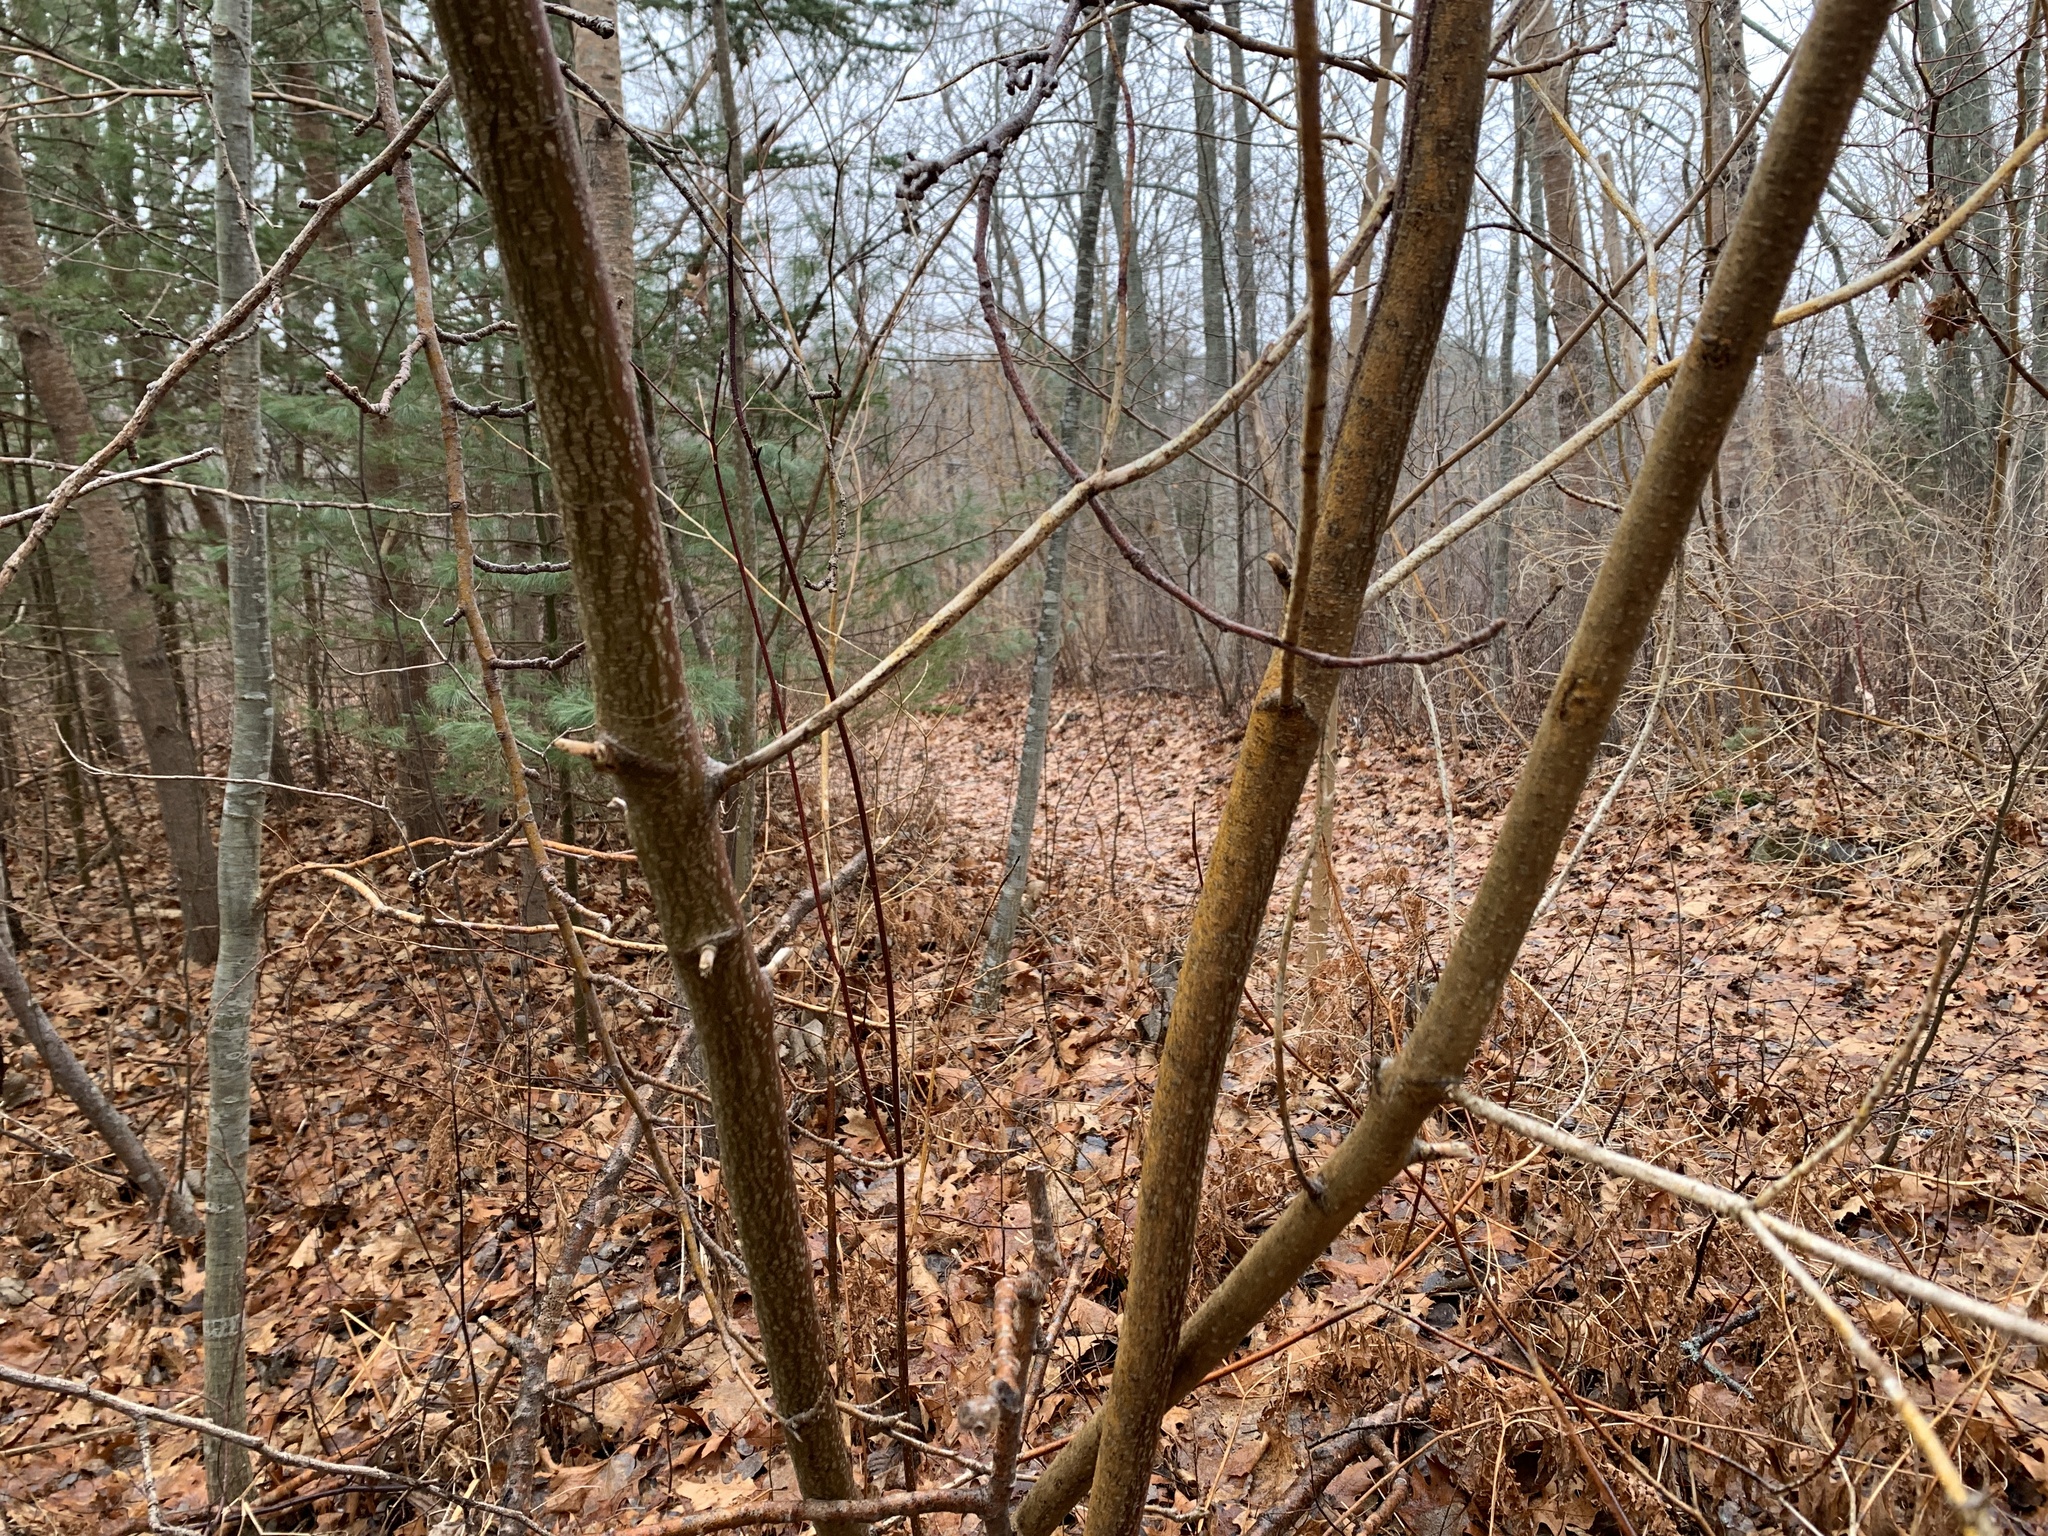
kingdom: Plantae
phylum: Tracheophyta
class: Magnoliopsida
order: Cornales
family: Cornaceae
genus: Cornus
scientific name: Cornus alternifolia
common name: Pagoda dogwood
